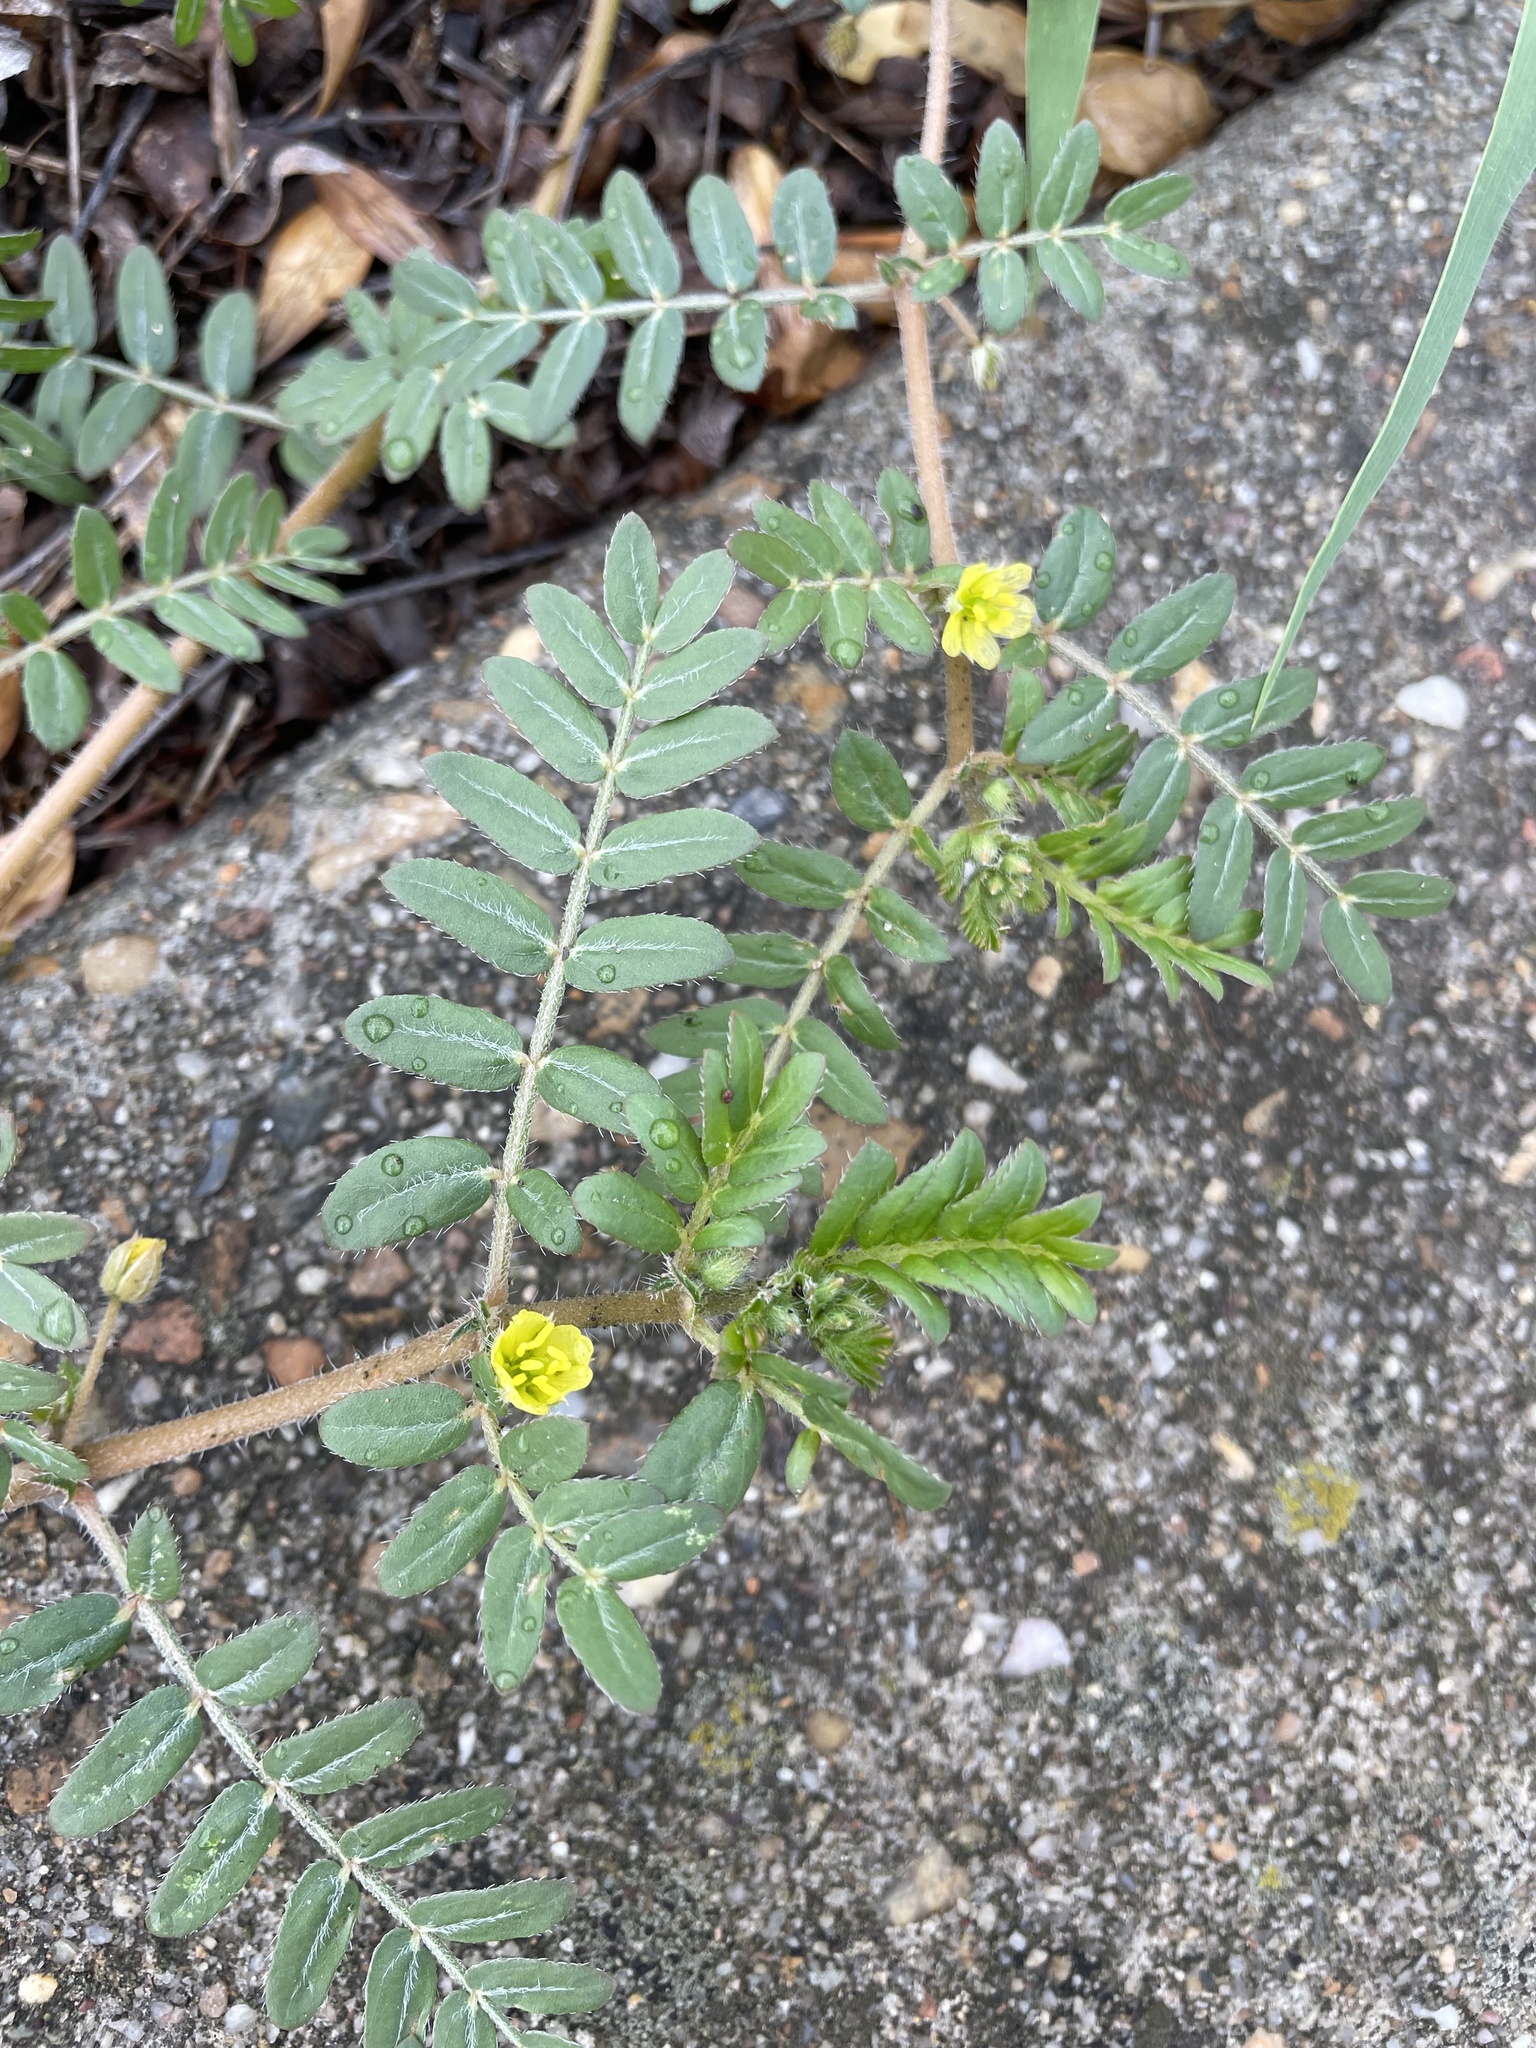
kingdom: Plantae
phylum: Tracheophyta
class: Magnoliopsida
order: Zygophyllales
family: Zygophyllaceae
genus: Tribulus
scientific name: Tribulus terrestris
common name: Puncturevine
